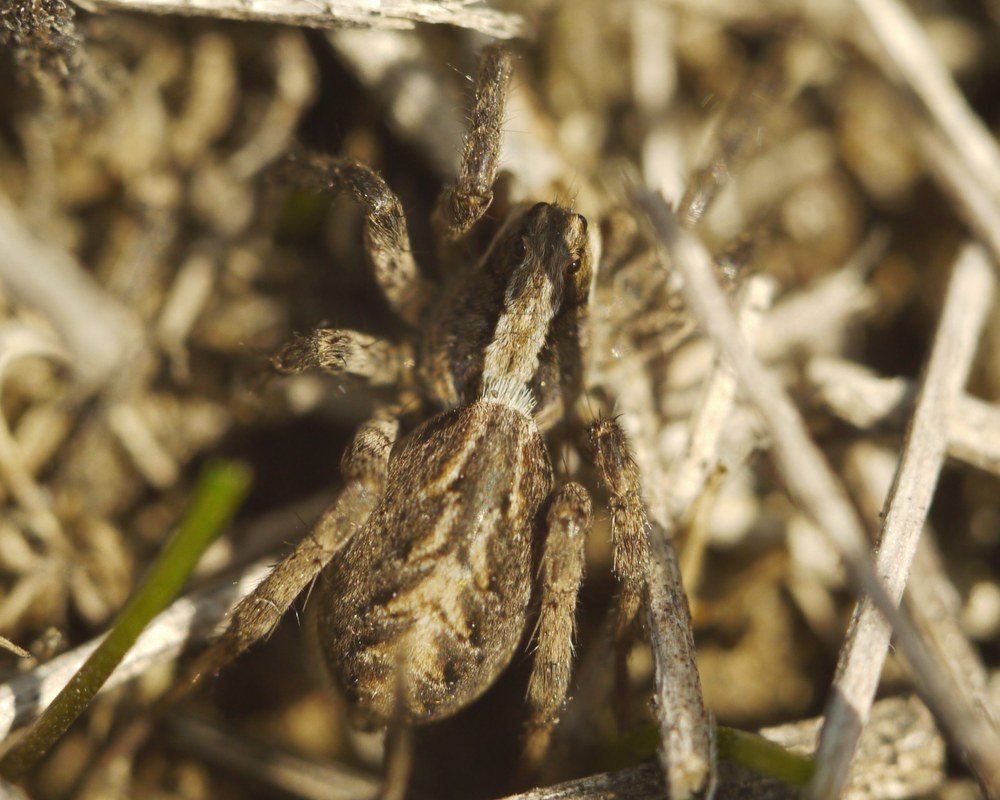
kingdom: Animalia
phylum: Arthropoda
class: Arachnida
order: Araneae
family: Lycosidae
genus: Alopecosa
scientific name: Alopecosa cursor
